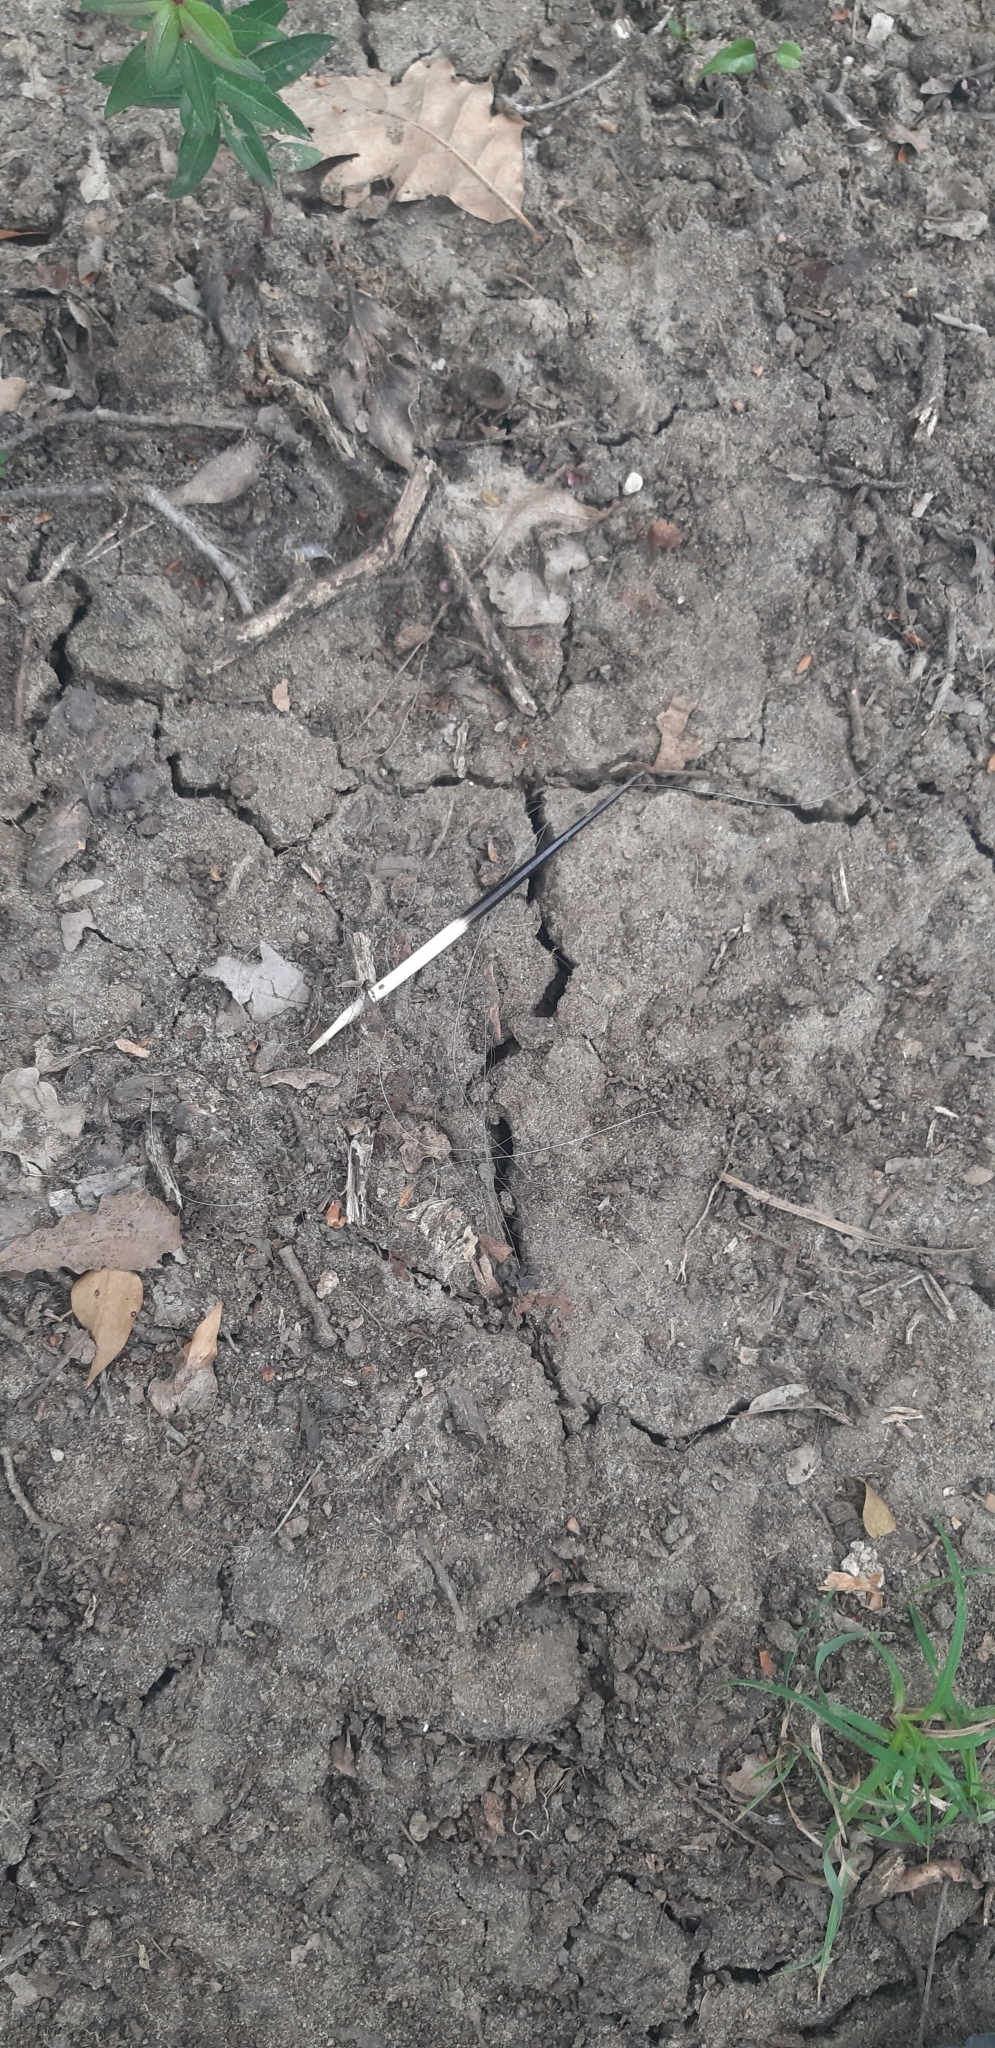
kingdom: Animalia
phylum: Chordata
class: Mammalia
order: Rodentia
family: Hystricidae
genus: Hystrix
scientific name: Hystrix cristata
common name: Crested porcupine
